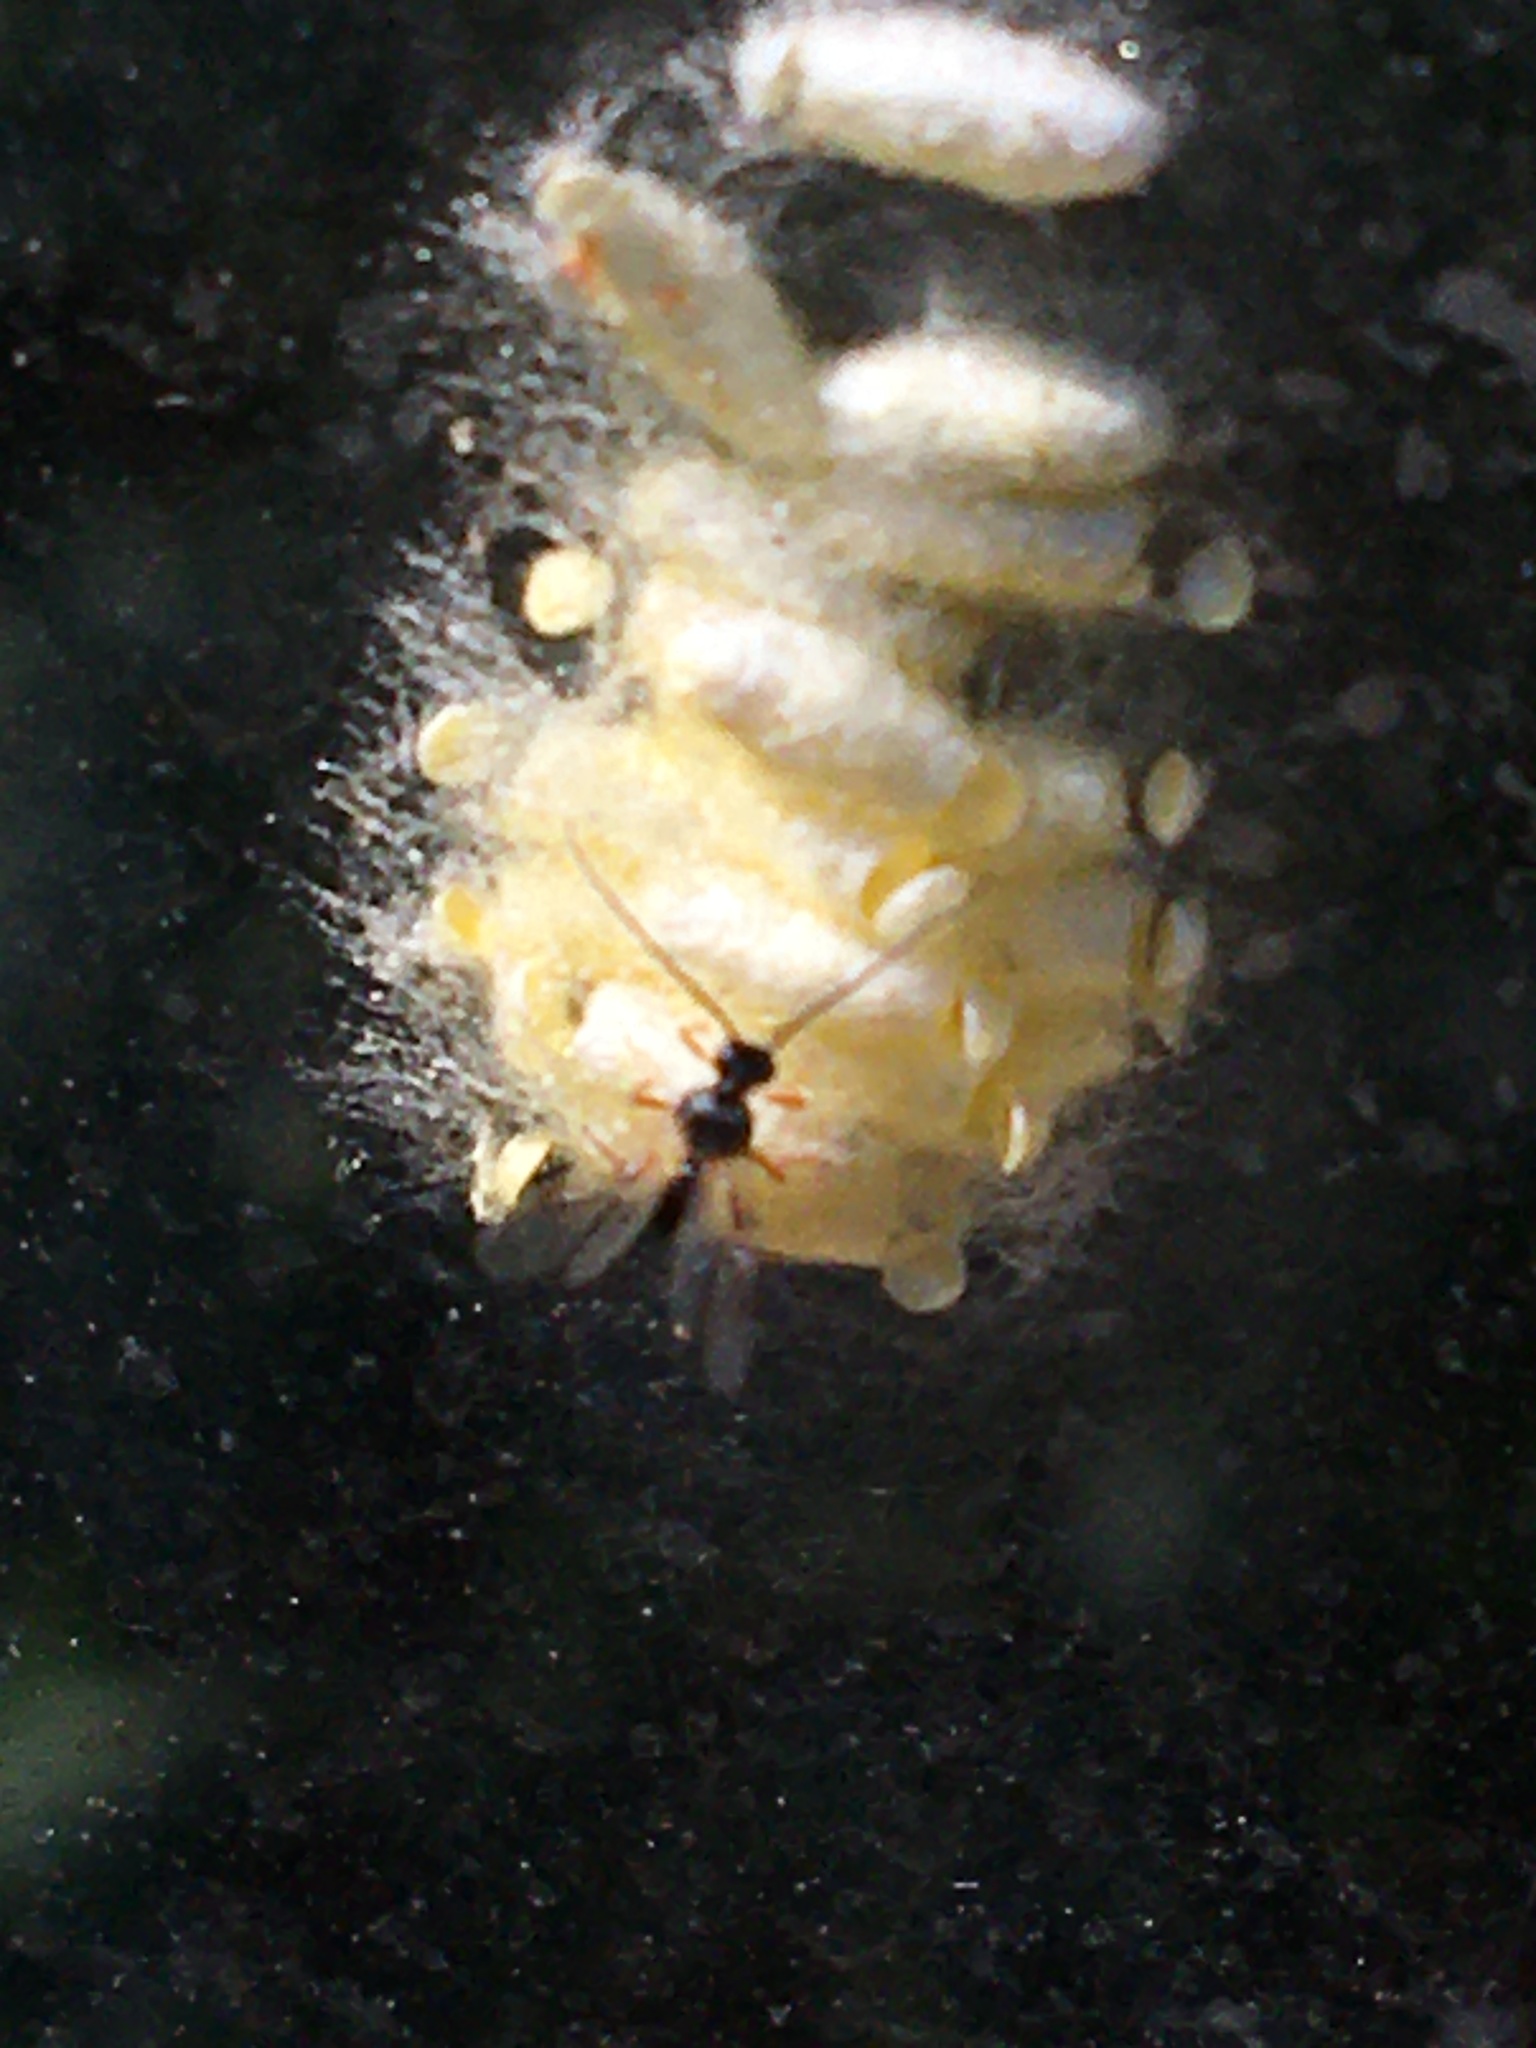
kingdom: Animalia
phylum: Arthropoda
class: Insecta
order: Hymenoptera
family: Braconidae
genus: Cotesia
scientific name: Cotesia glomerata
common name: Parasitoid wasp
